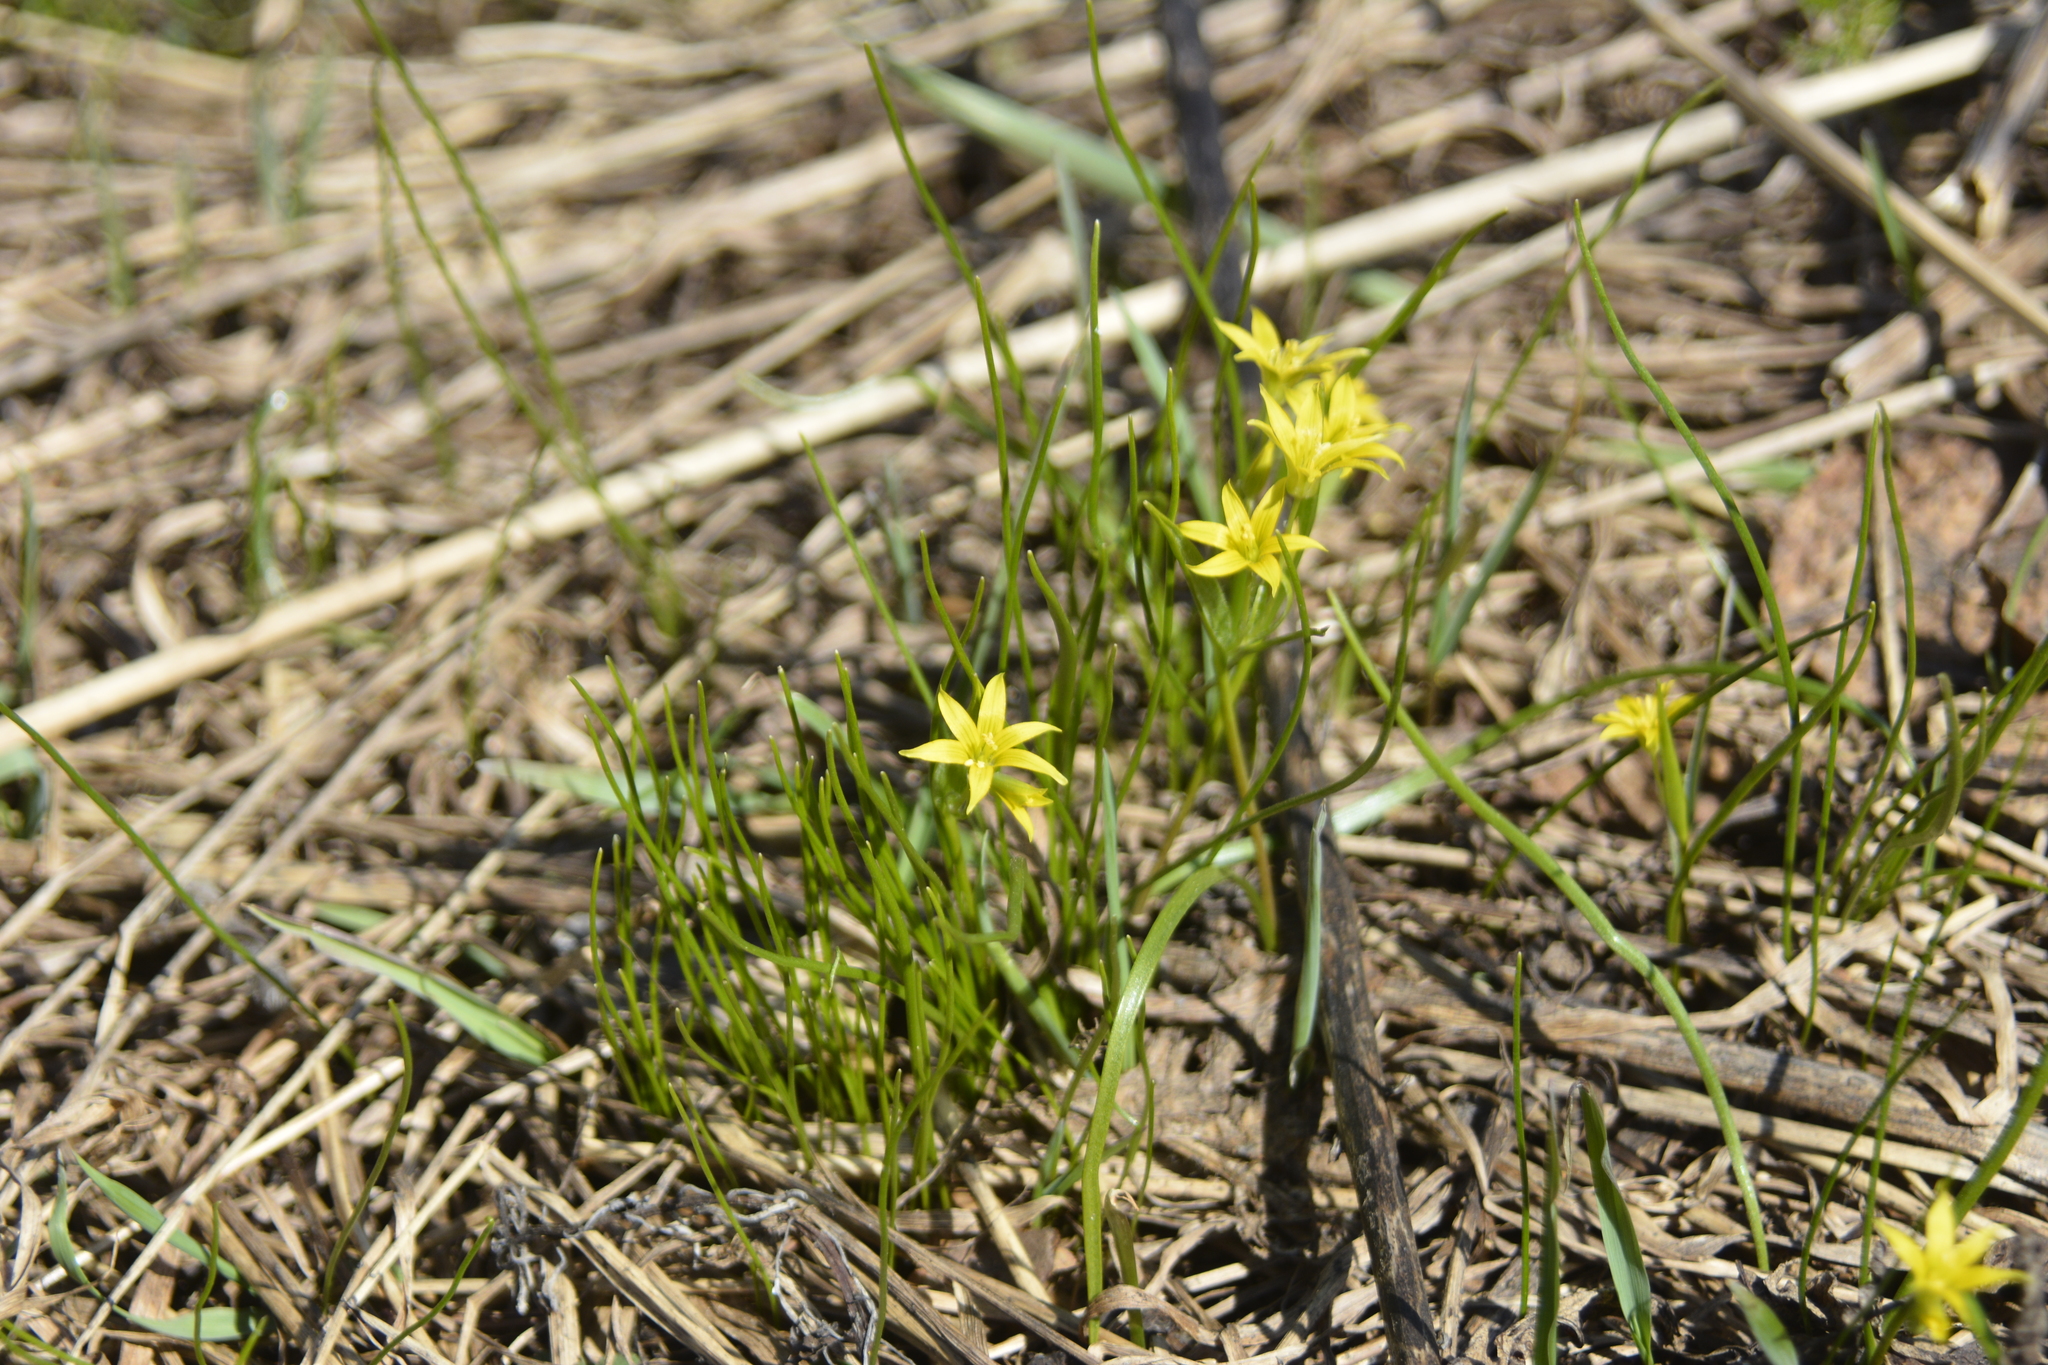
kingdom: Plantae
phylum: Tracheophyta
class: Liliopsida
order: Liliales
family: Liliaceae
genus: Gagea
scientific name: Gagea minima
